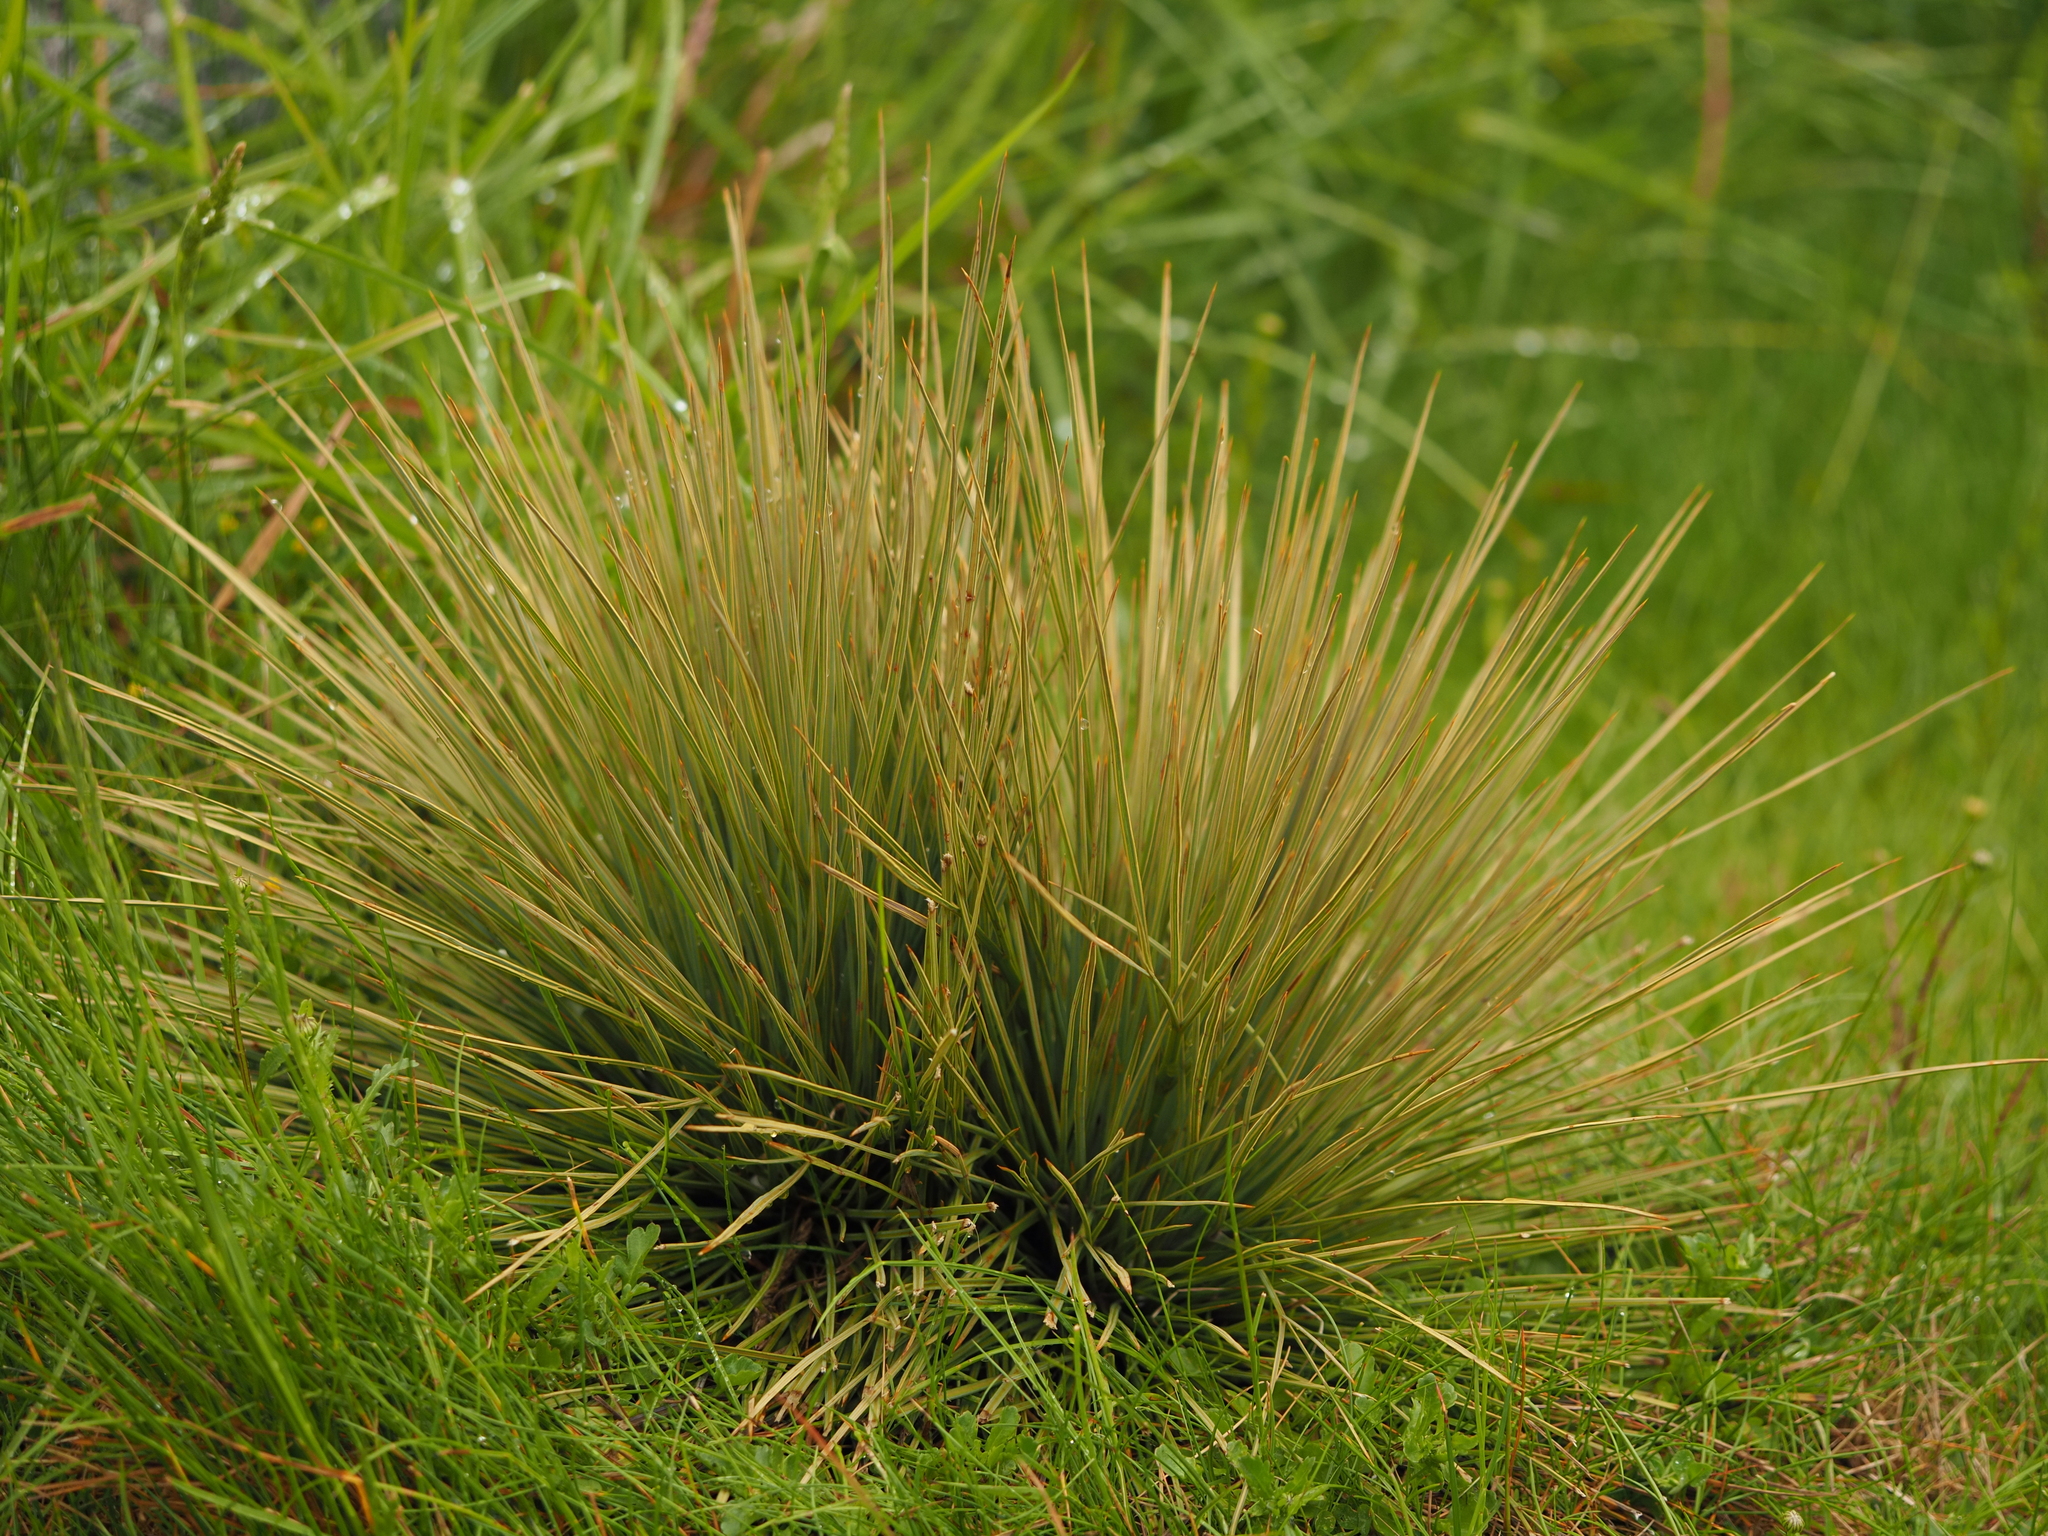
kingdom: Plantae
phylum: Tracheophyta
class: Magnoliopsida
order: Apiales
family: Apiaceae
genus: Aciphylla
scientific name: Aciphylla subflabellata
